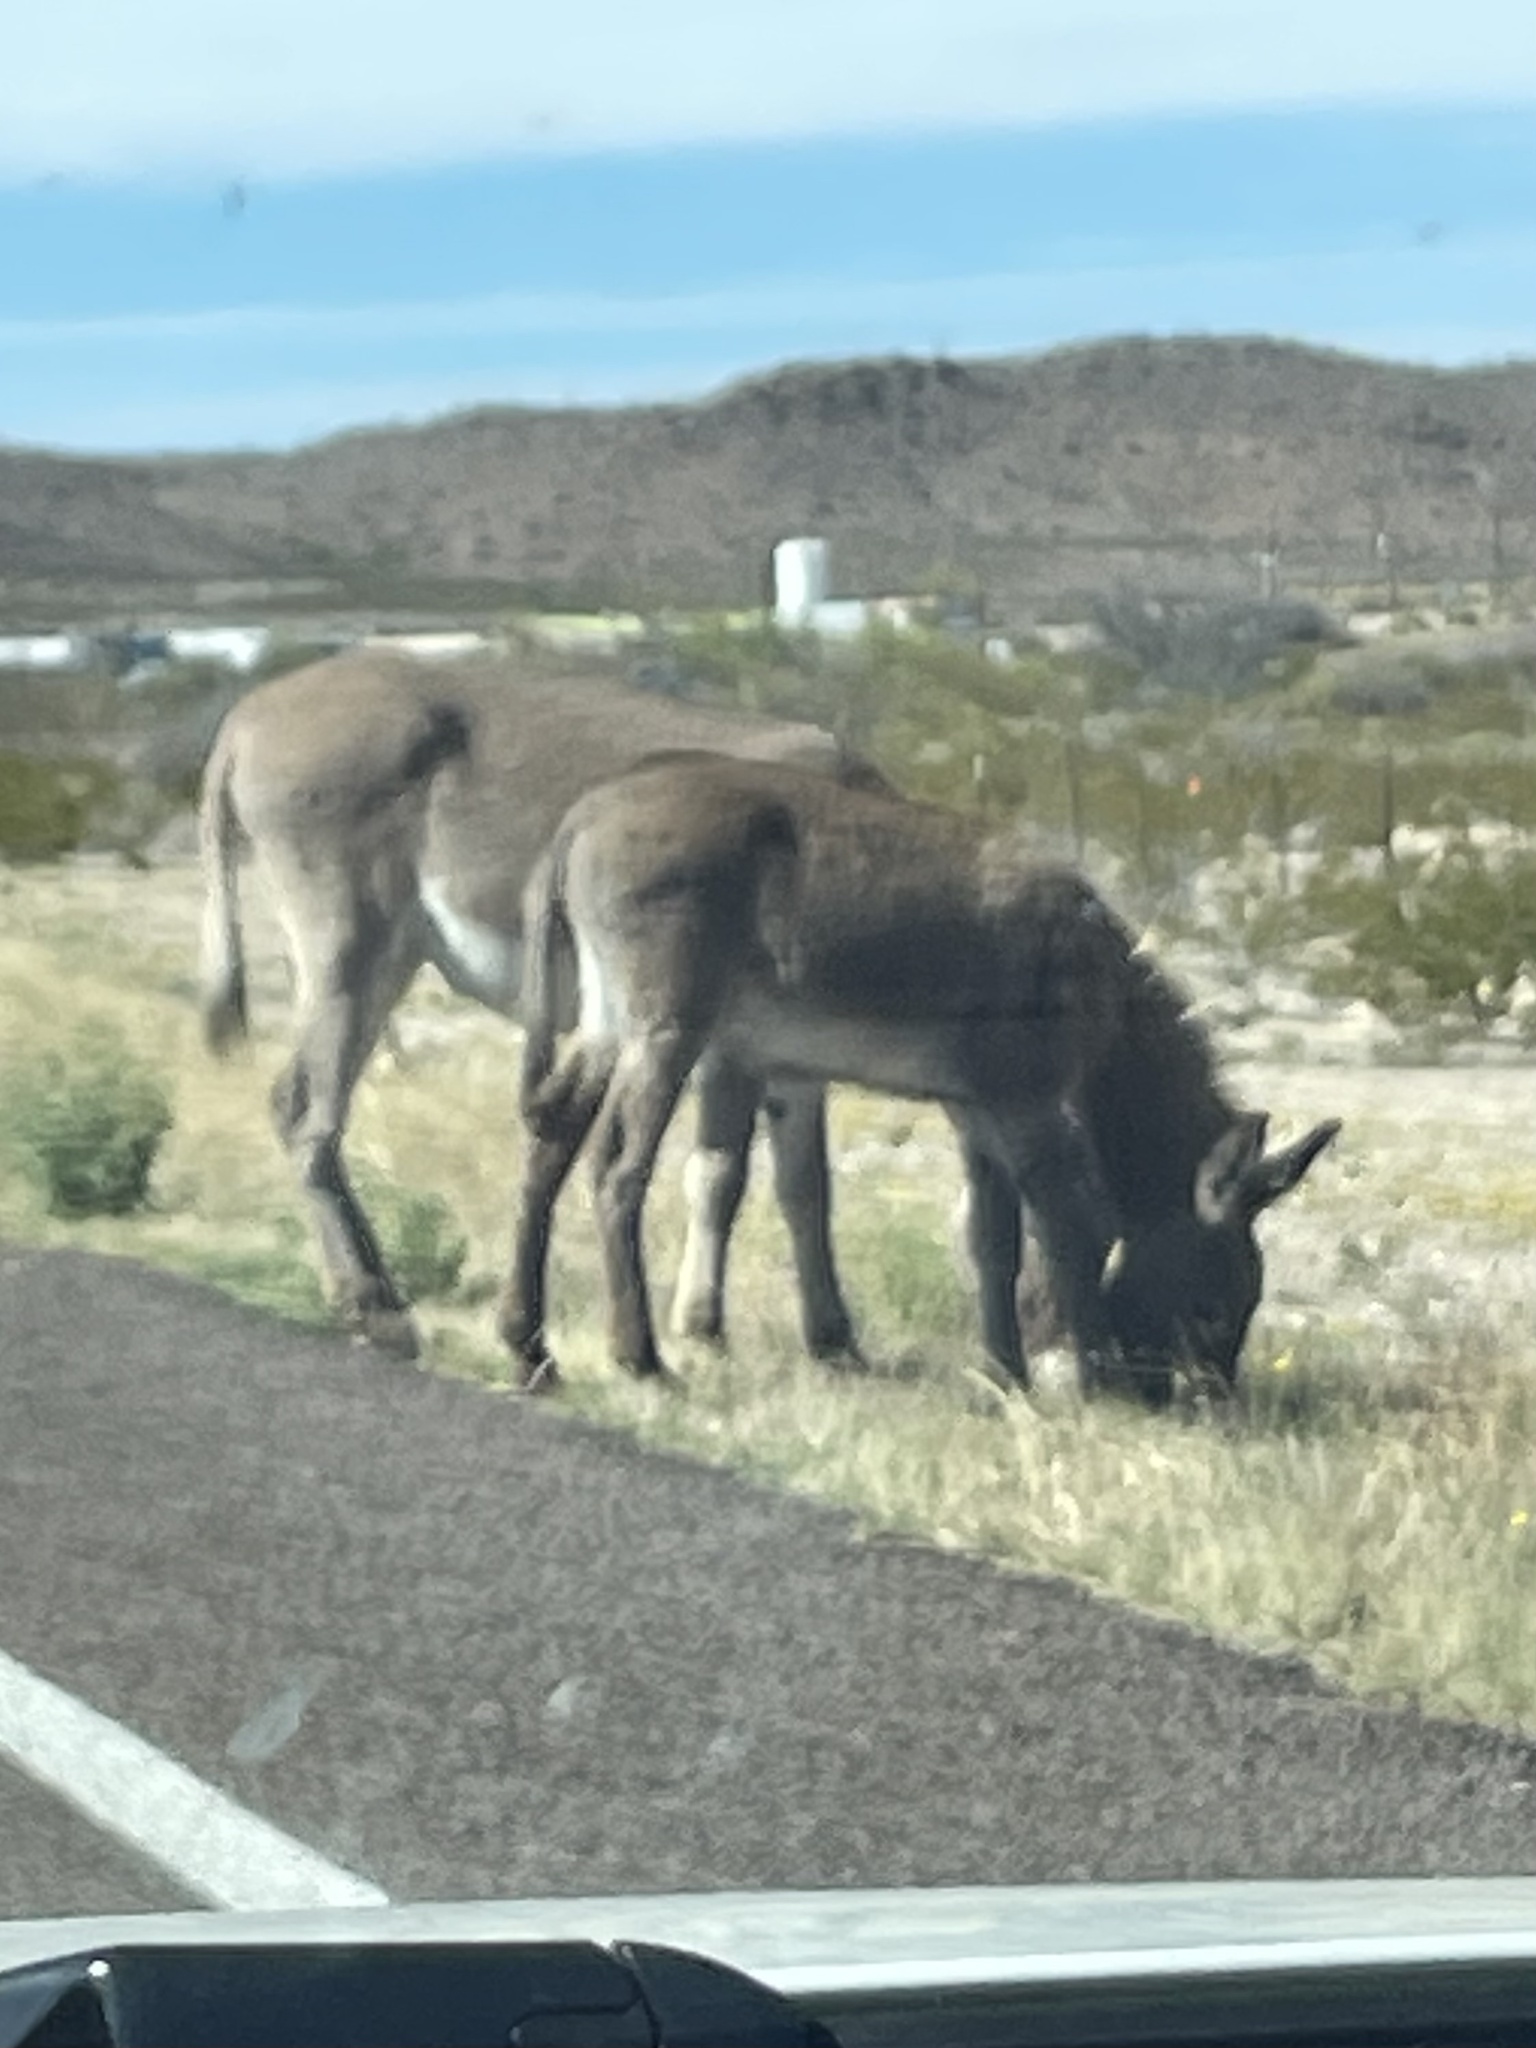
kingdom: Animalia
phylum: Chordata
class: Mammalia
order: Perissodactyla
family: Equidae
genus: Equus
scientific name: Equus asinus
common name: Ass
